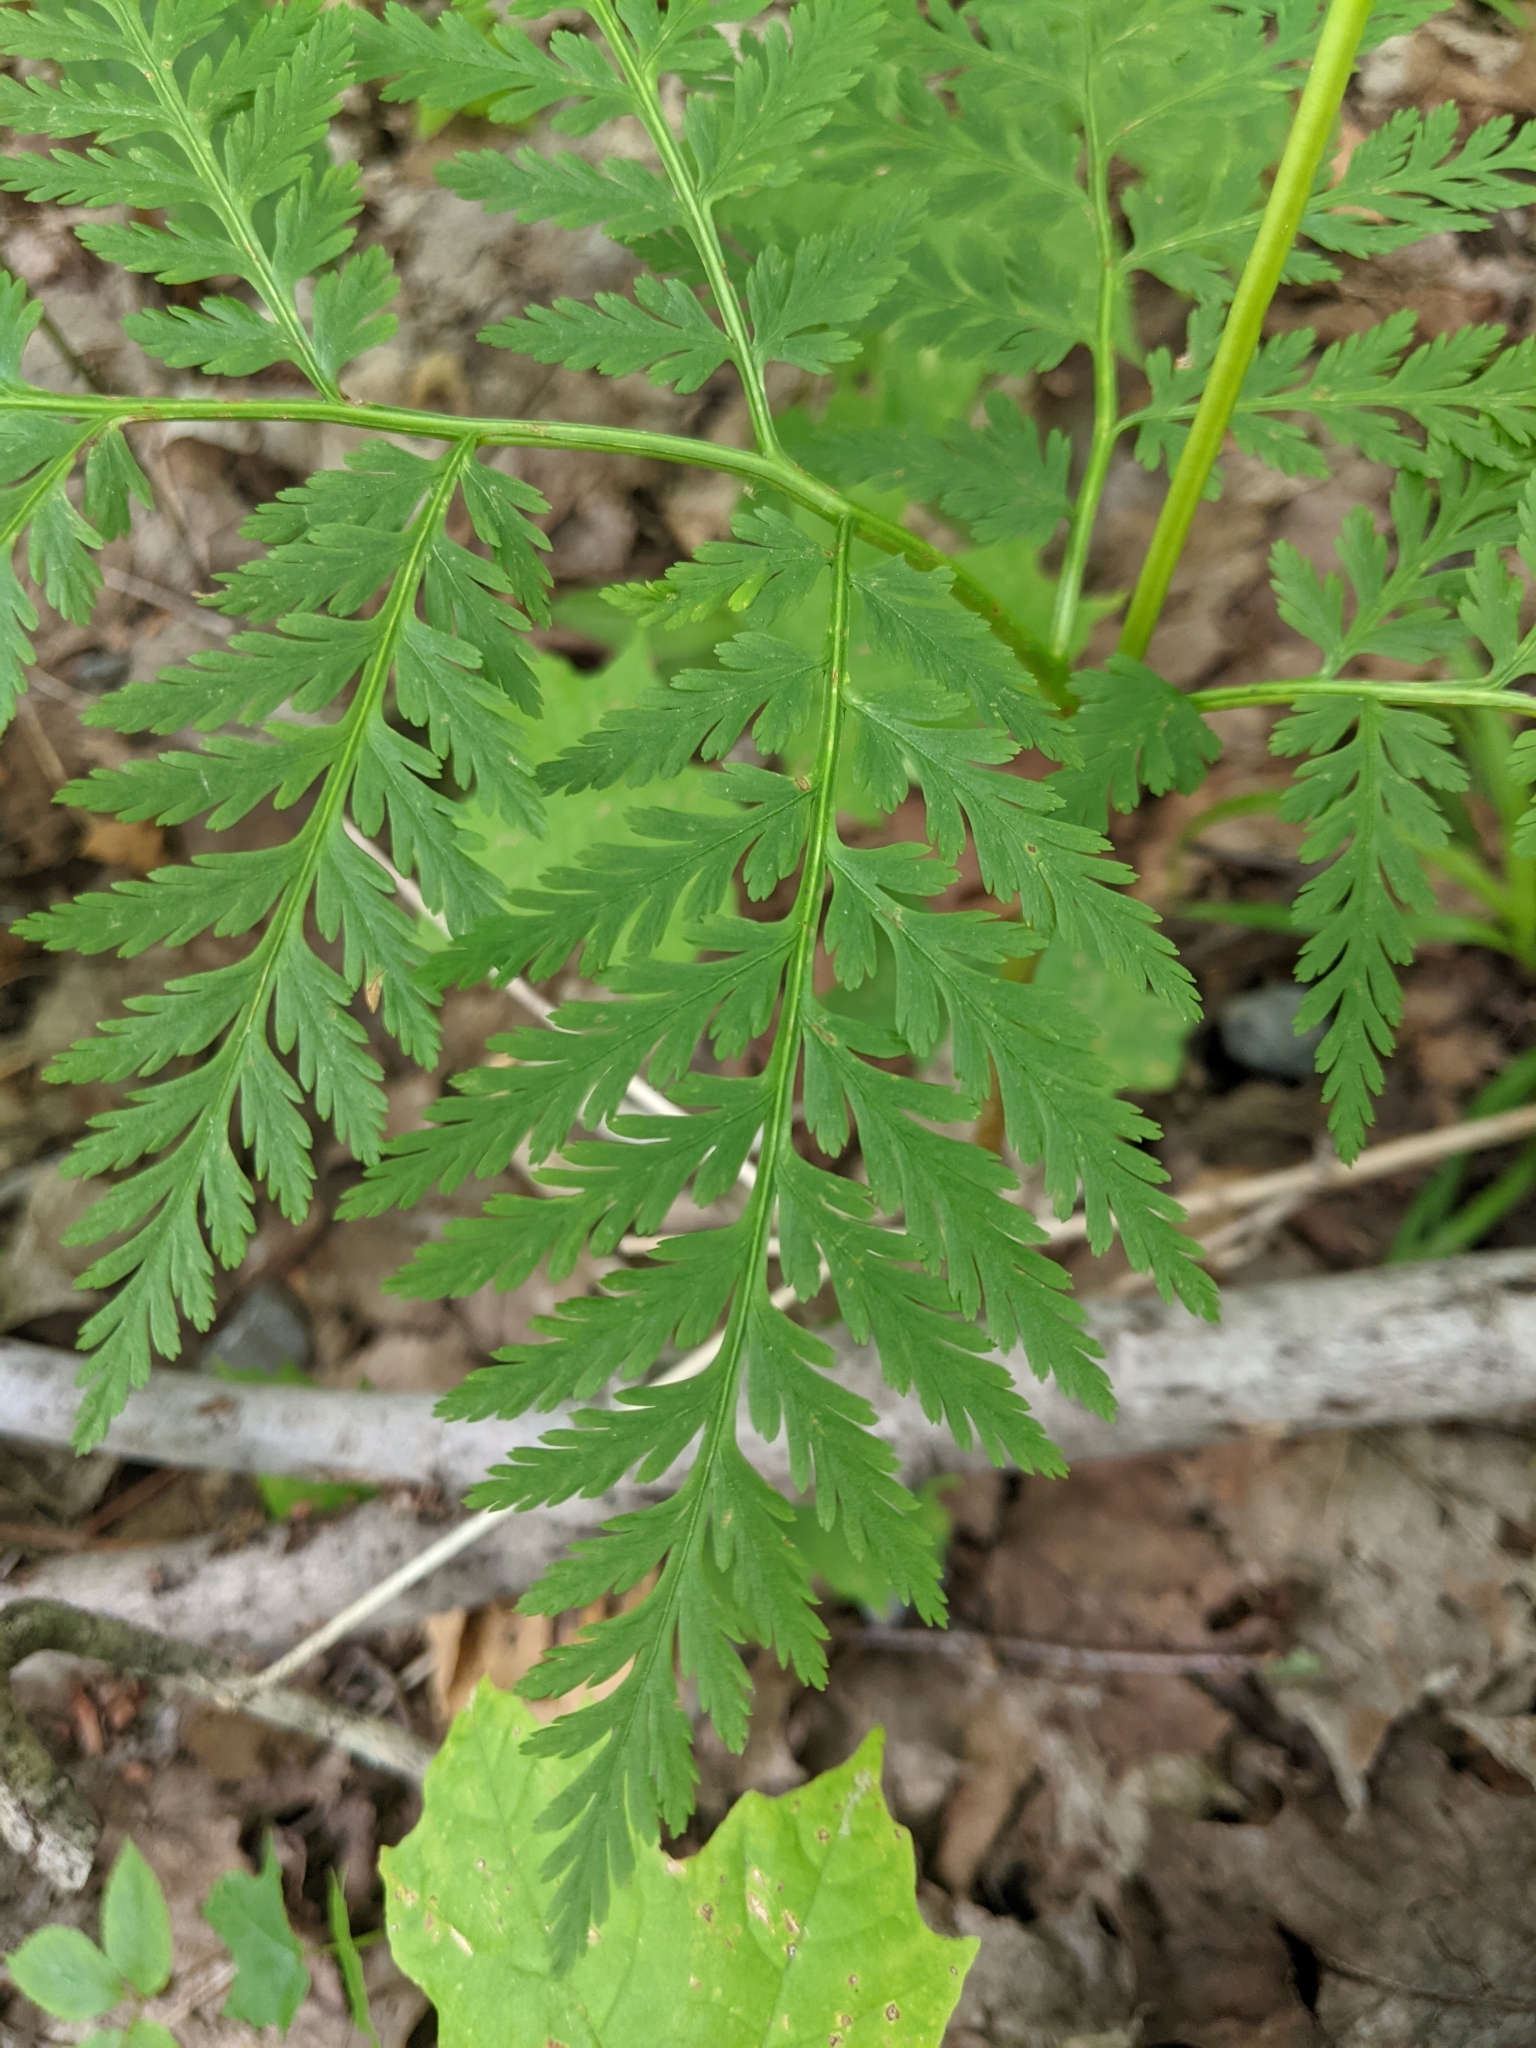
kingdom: Plantae
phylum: Tracheophyta
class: Polypodiopsida
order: Ophioglossales
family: Ophioglossaceae
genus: Botrypus
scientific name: Botrypus virginianus
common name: Common grapefern
